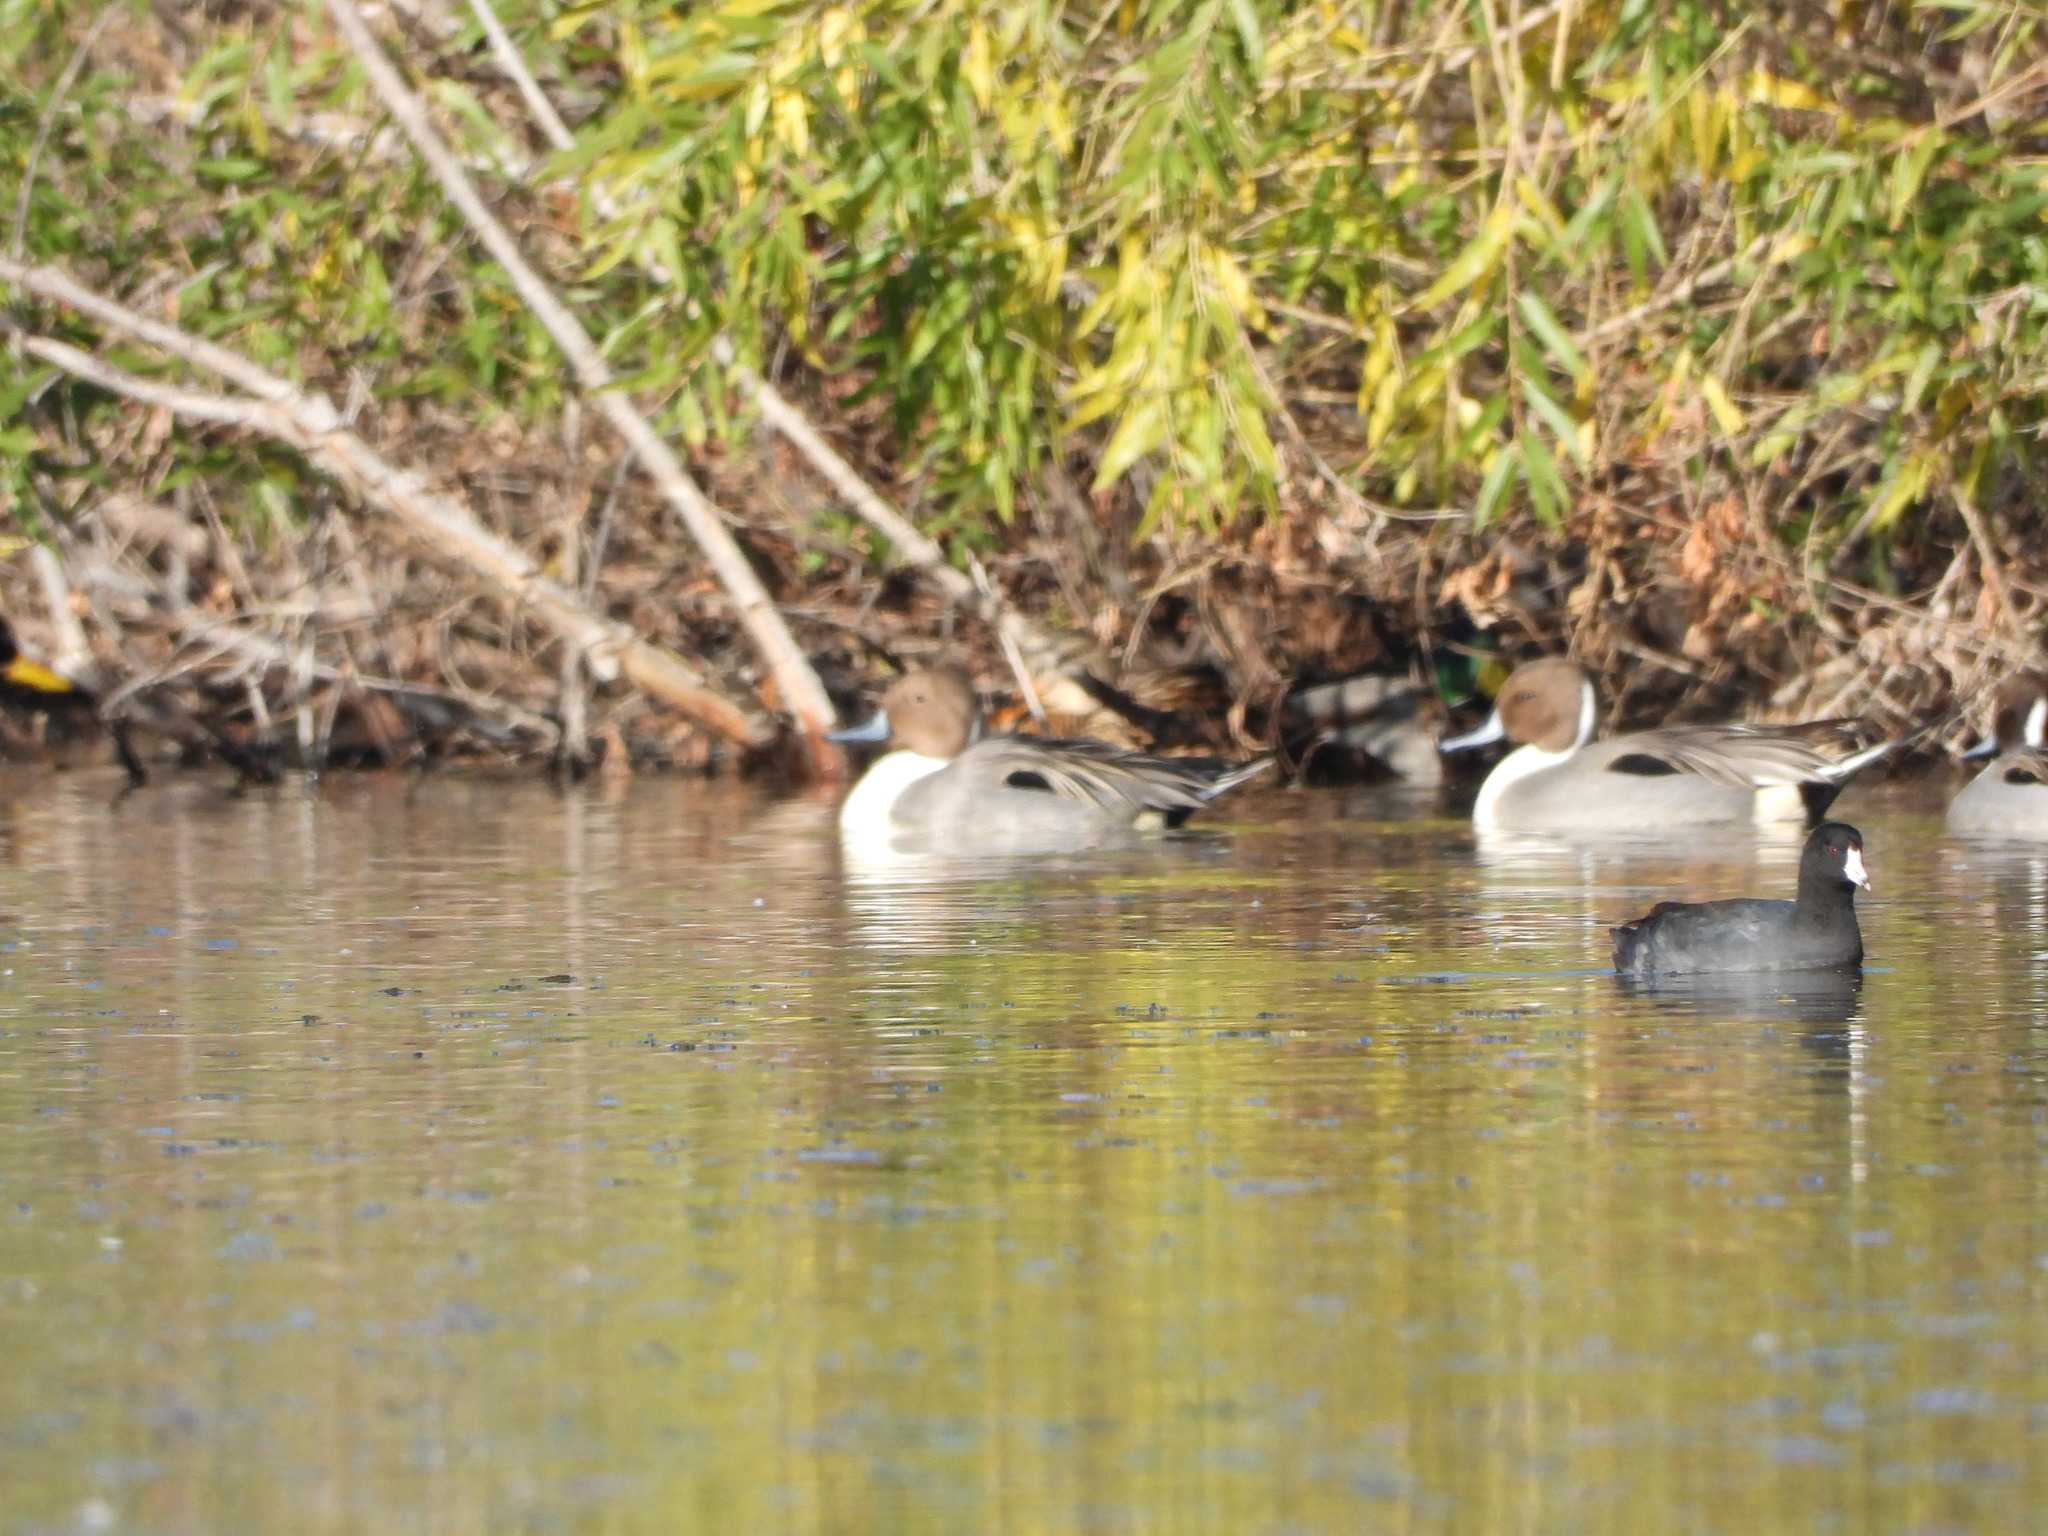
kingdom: Animalia
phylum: Chordata
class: Aves
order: Gruiformes
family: Rallidae
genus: Fulica
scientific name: Fulica americana
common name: American coot
